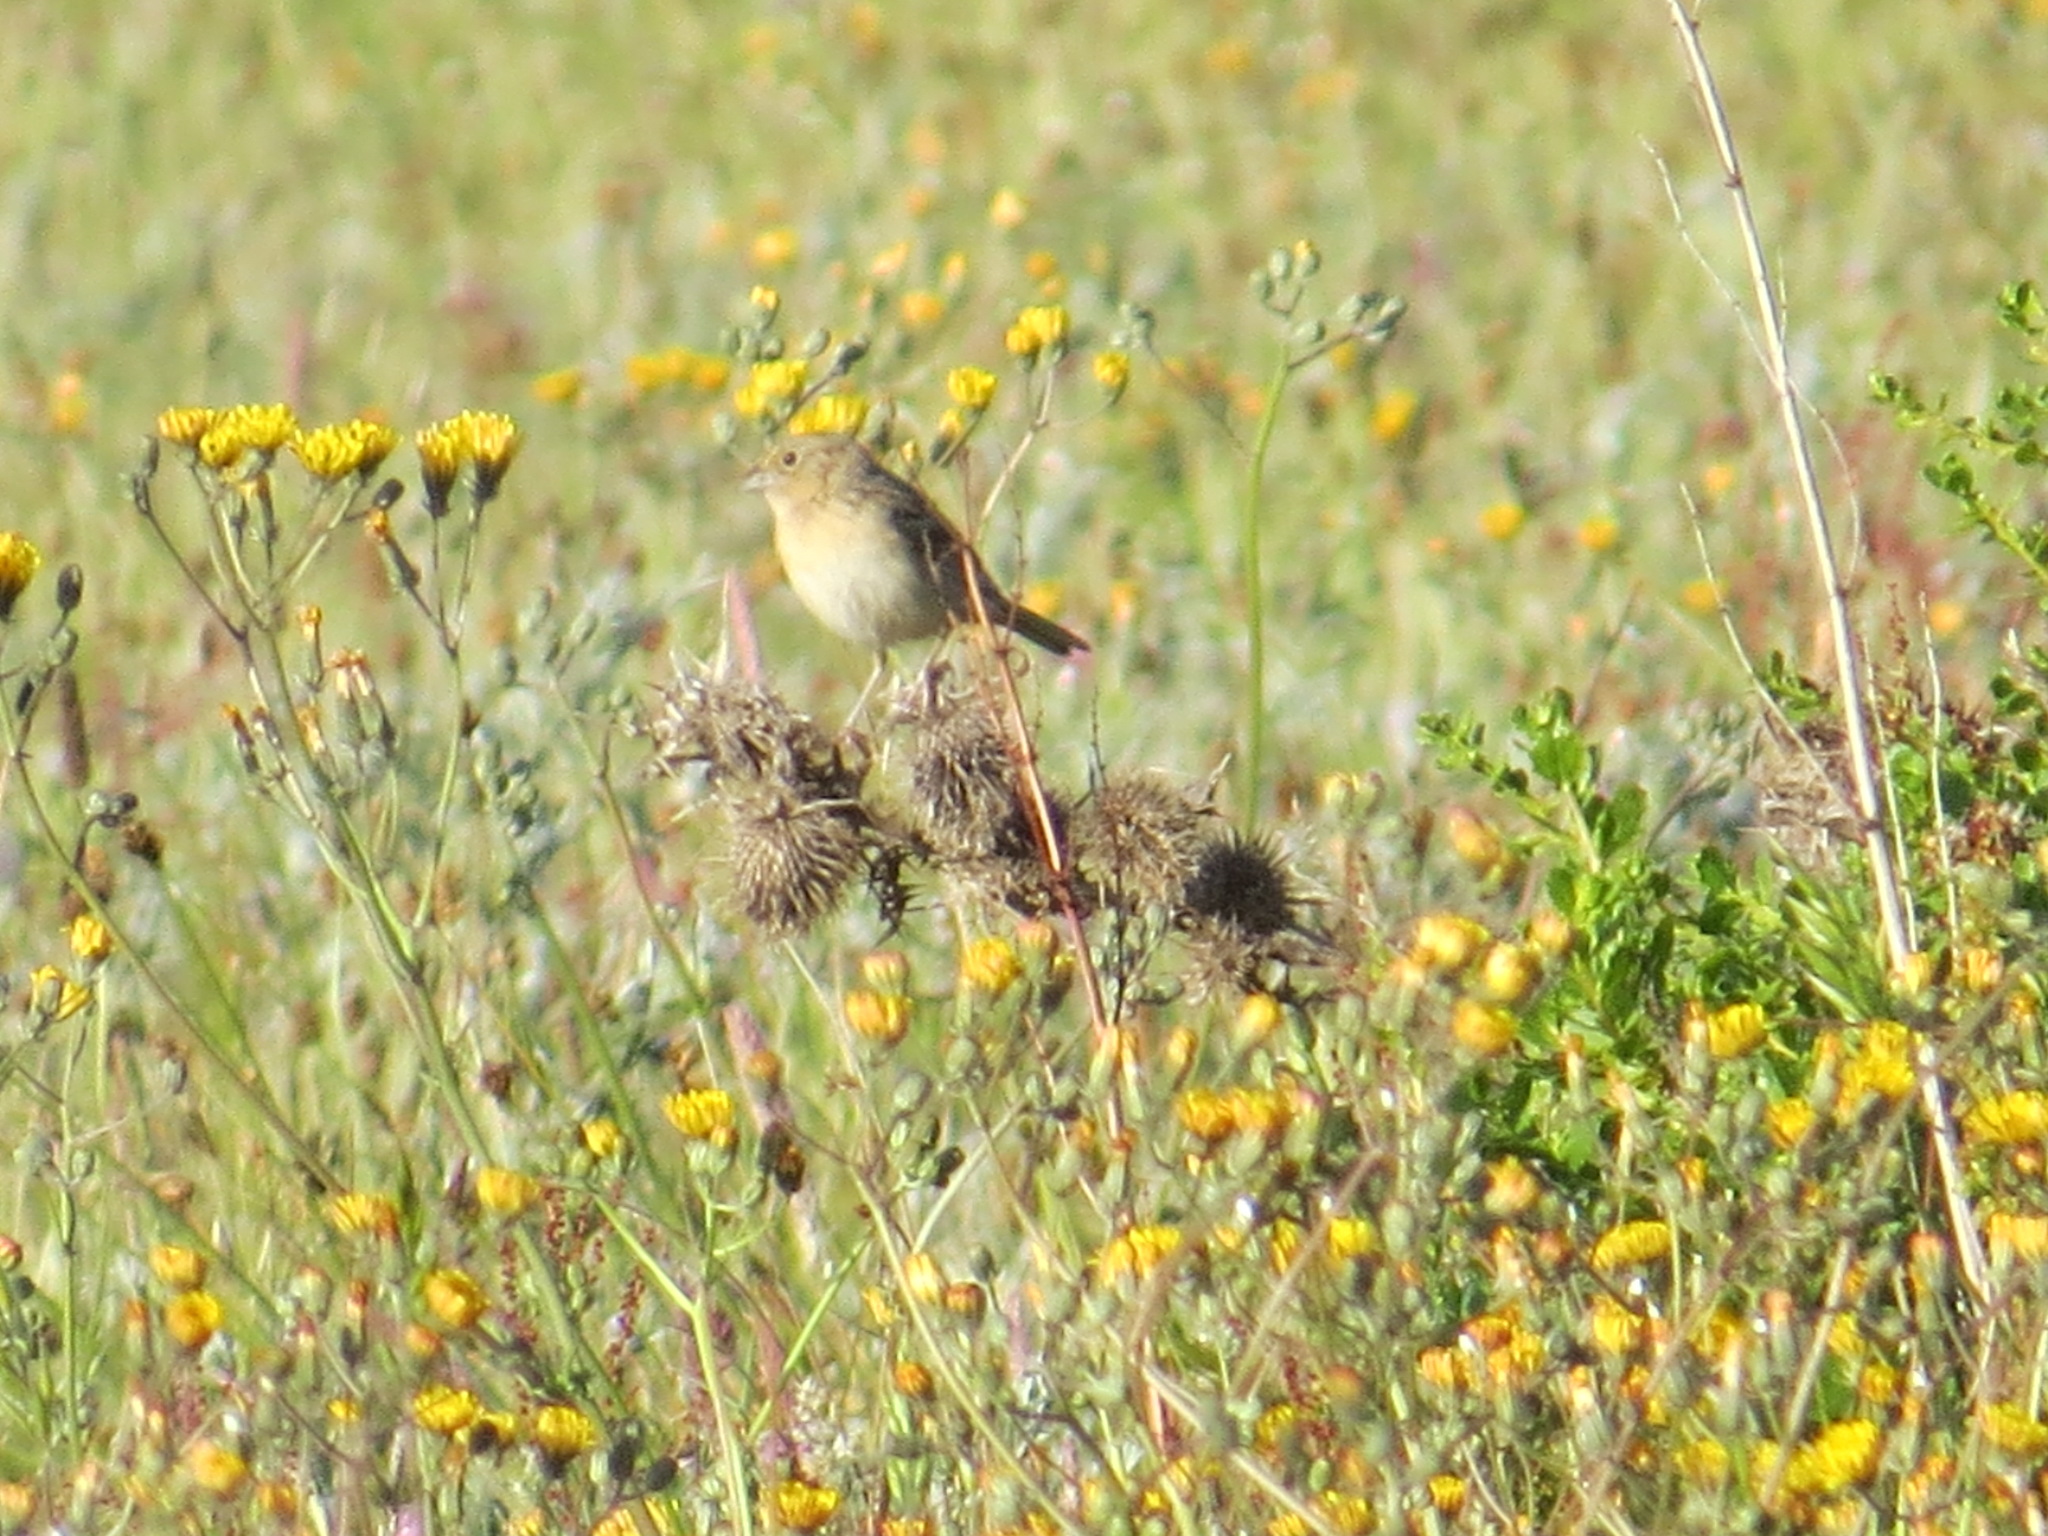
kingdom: Animalia
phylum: Chordata
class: Aves
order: Passeriformes
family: Passerellidae
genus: Ammodramus
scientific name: Ammodramus savannarum
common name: Grasshopper sparrow
